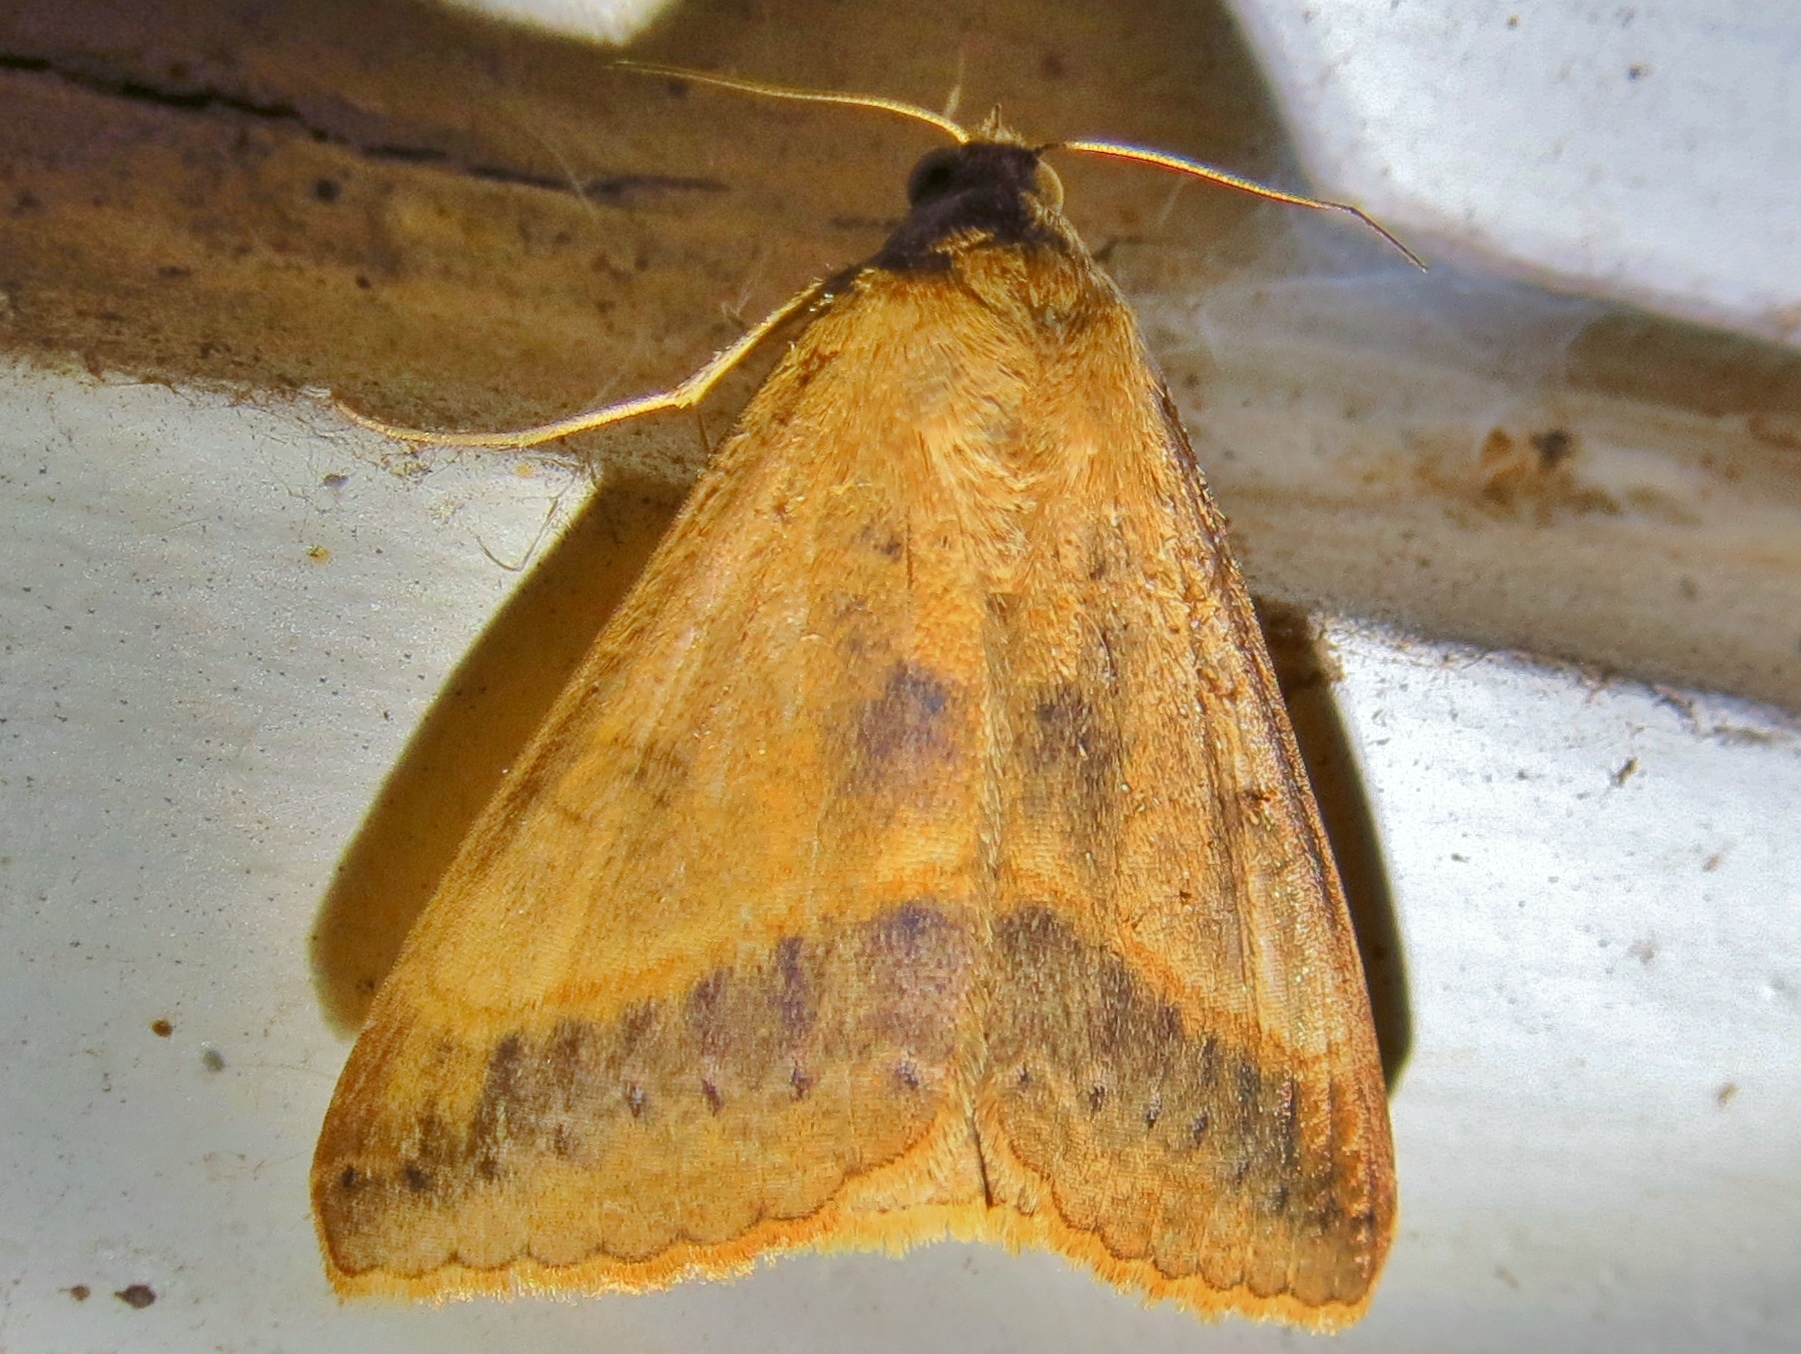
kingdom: Animalia
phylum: Arthropoda
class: Insecta
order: Lepidoptera
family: Erebidae
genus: Mocis
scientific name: Mocis latipes
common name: Striped grass looper
